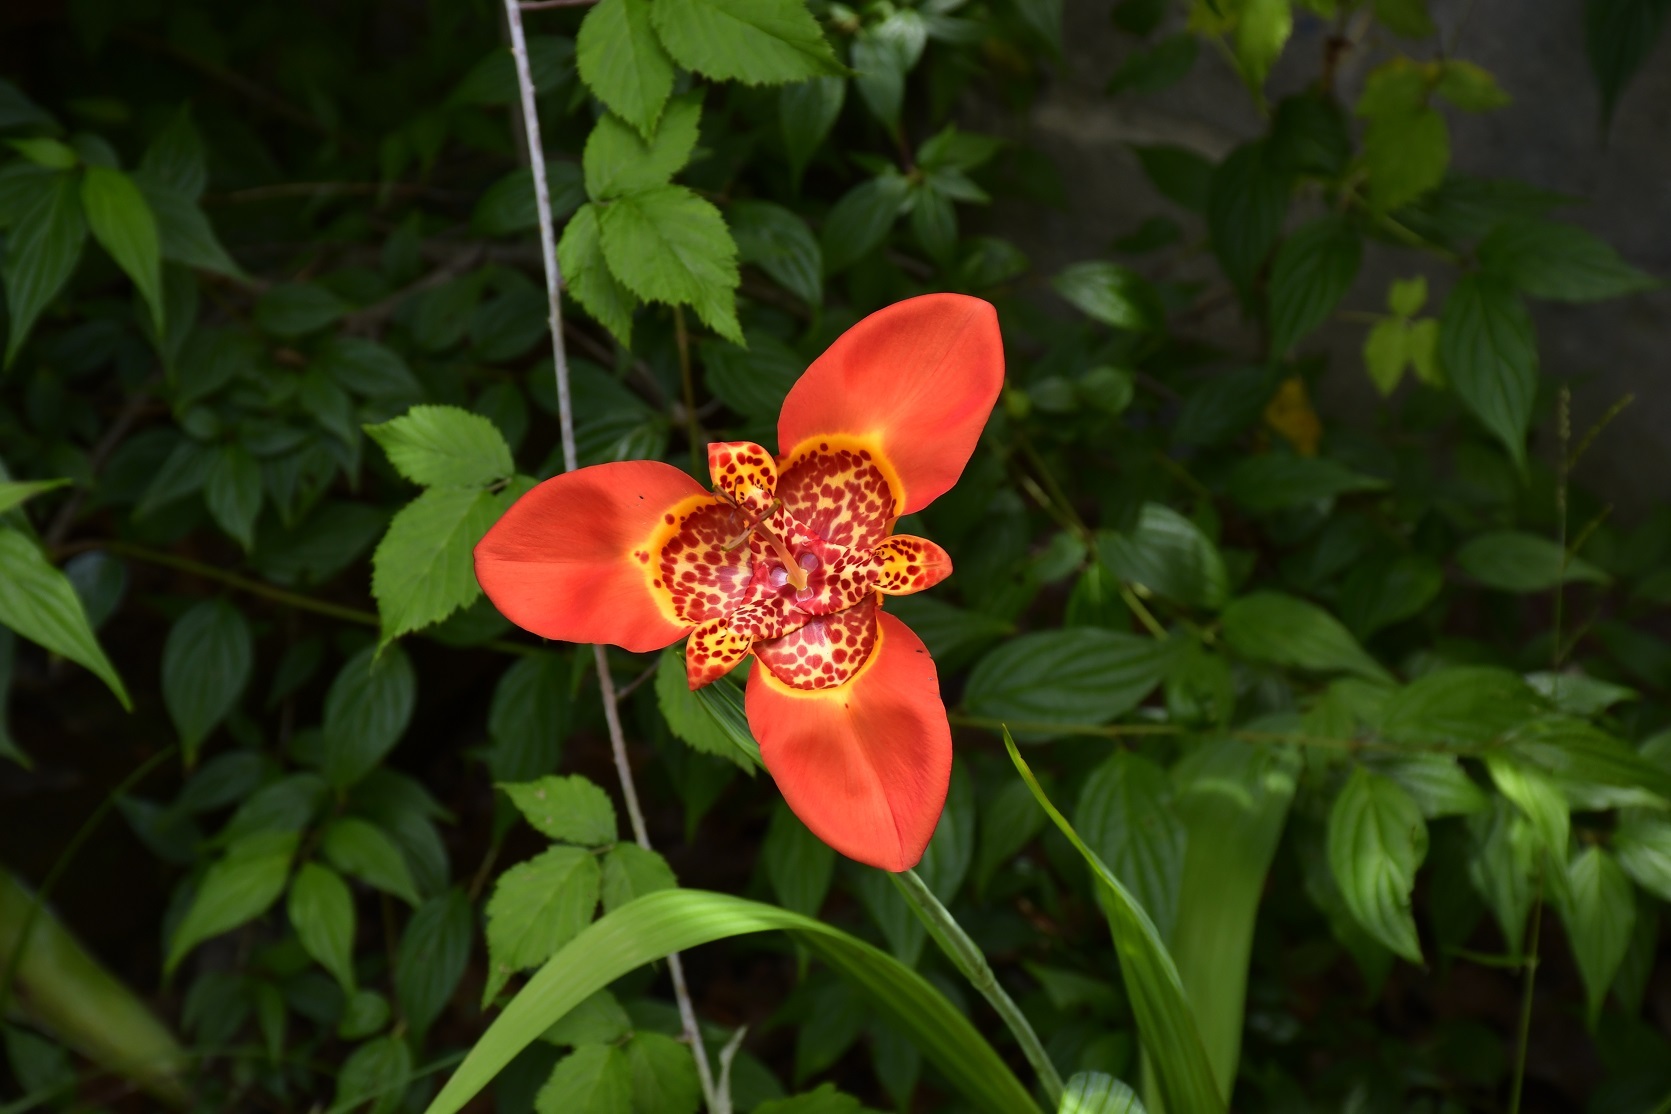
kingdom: Plantae
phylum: Tracheophyta
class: Liliopsida
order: Asparagales
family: Iridaceae
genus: Tigridia
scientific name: Tigridia pavonia
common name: Peacock-flower
